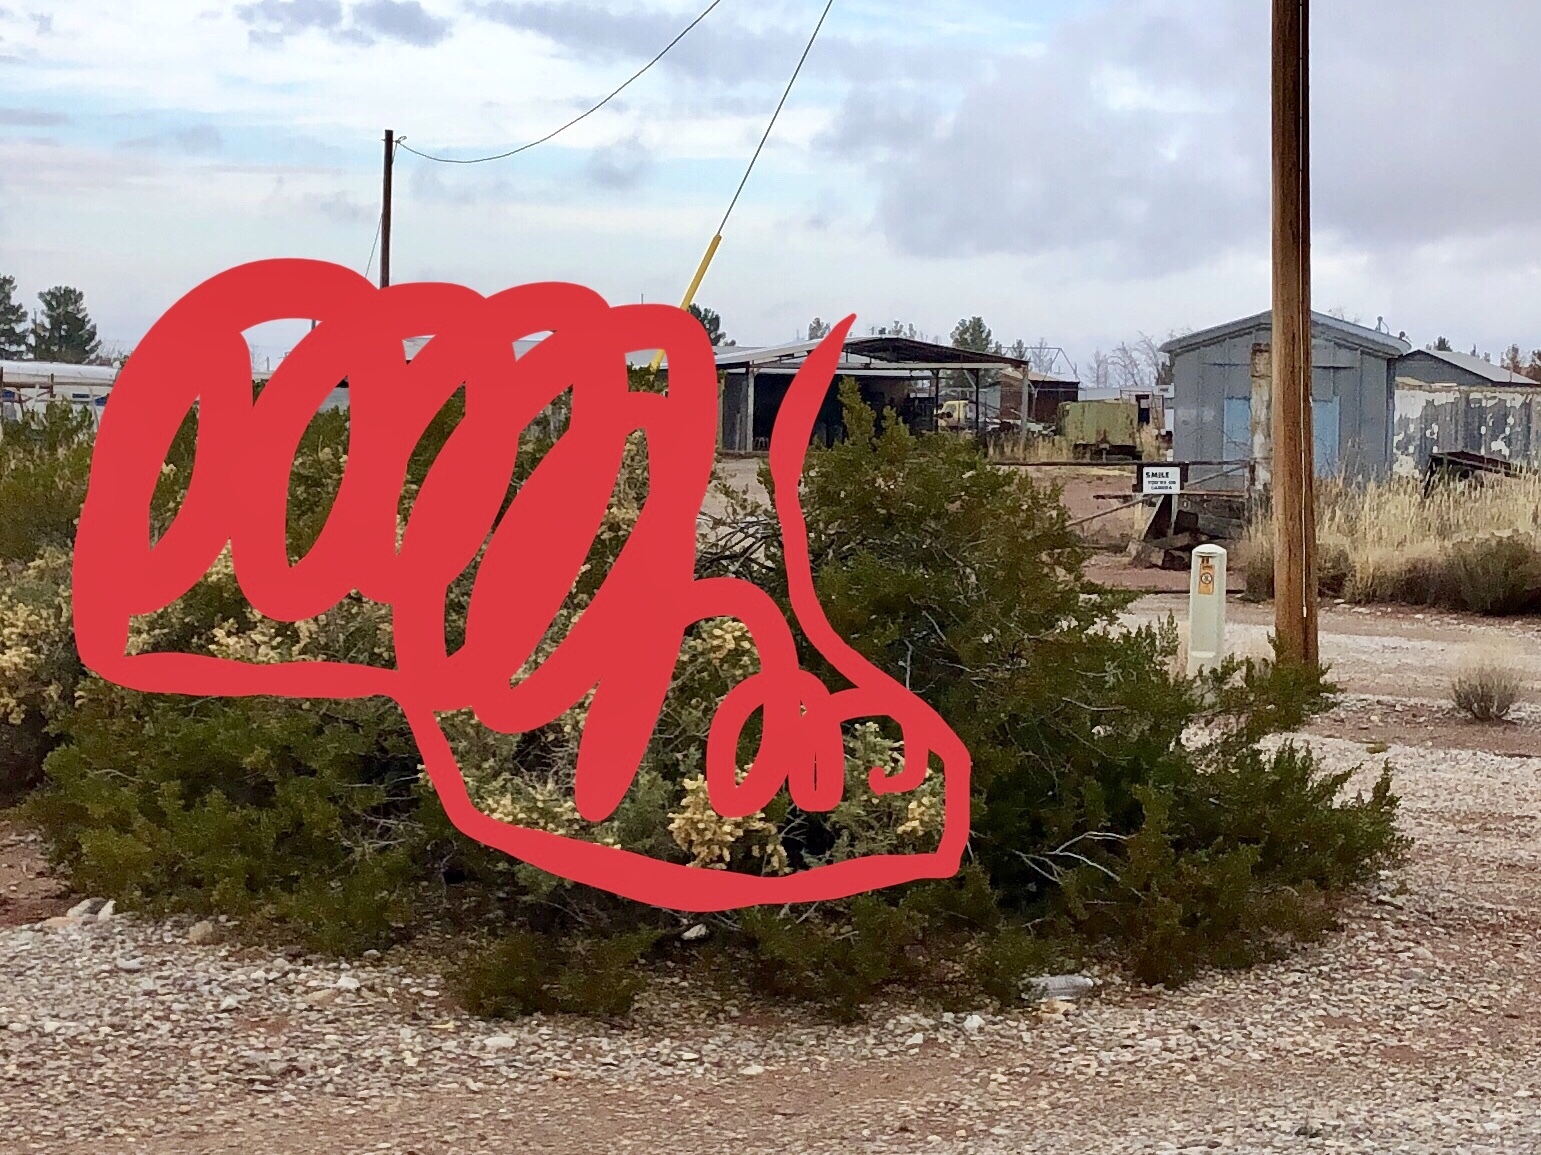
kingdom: Plantae
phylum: Tracheophyta
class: Magnoliopsida
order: Zygophyllales
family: Zygophyllaceae
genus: Larrea
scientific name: Larrea tridentata
